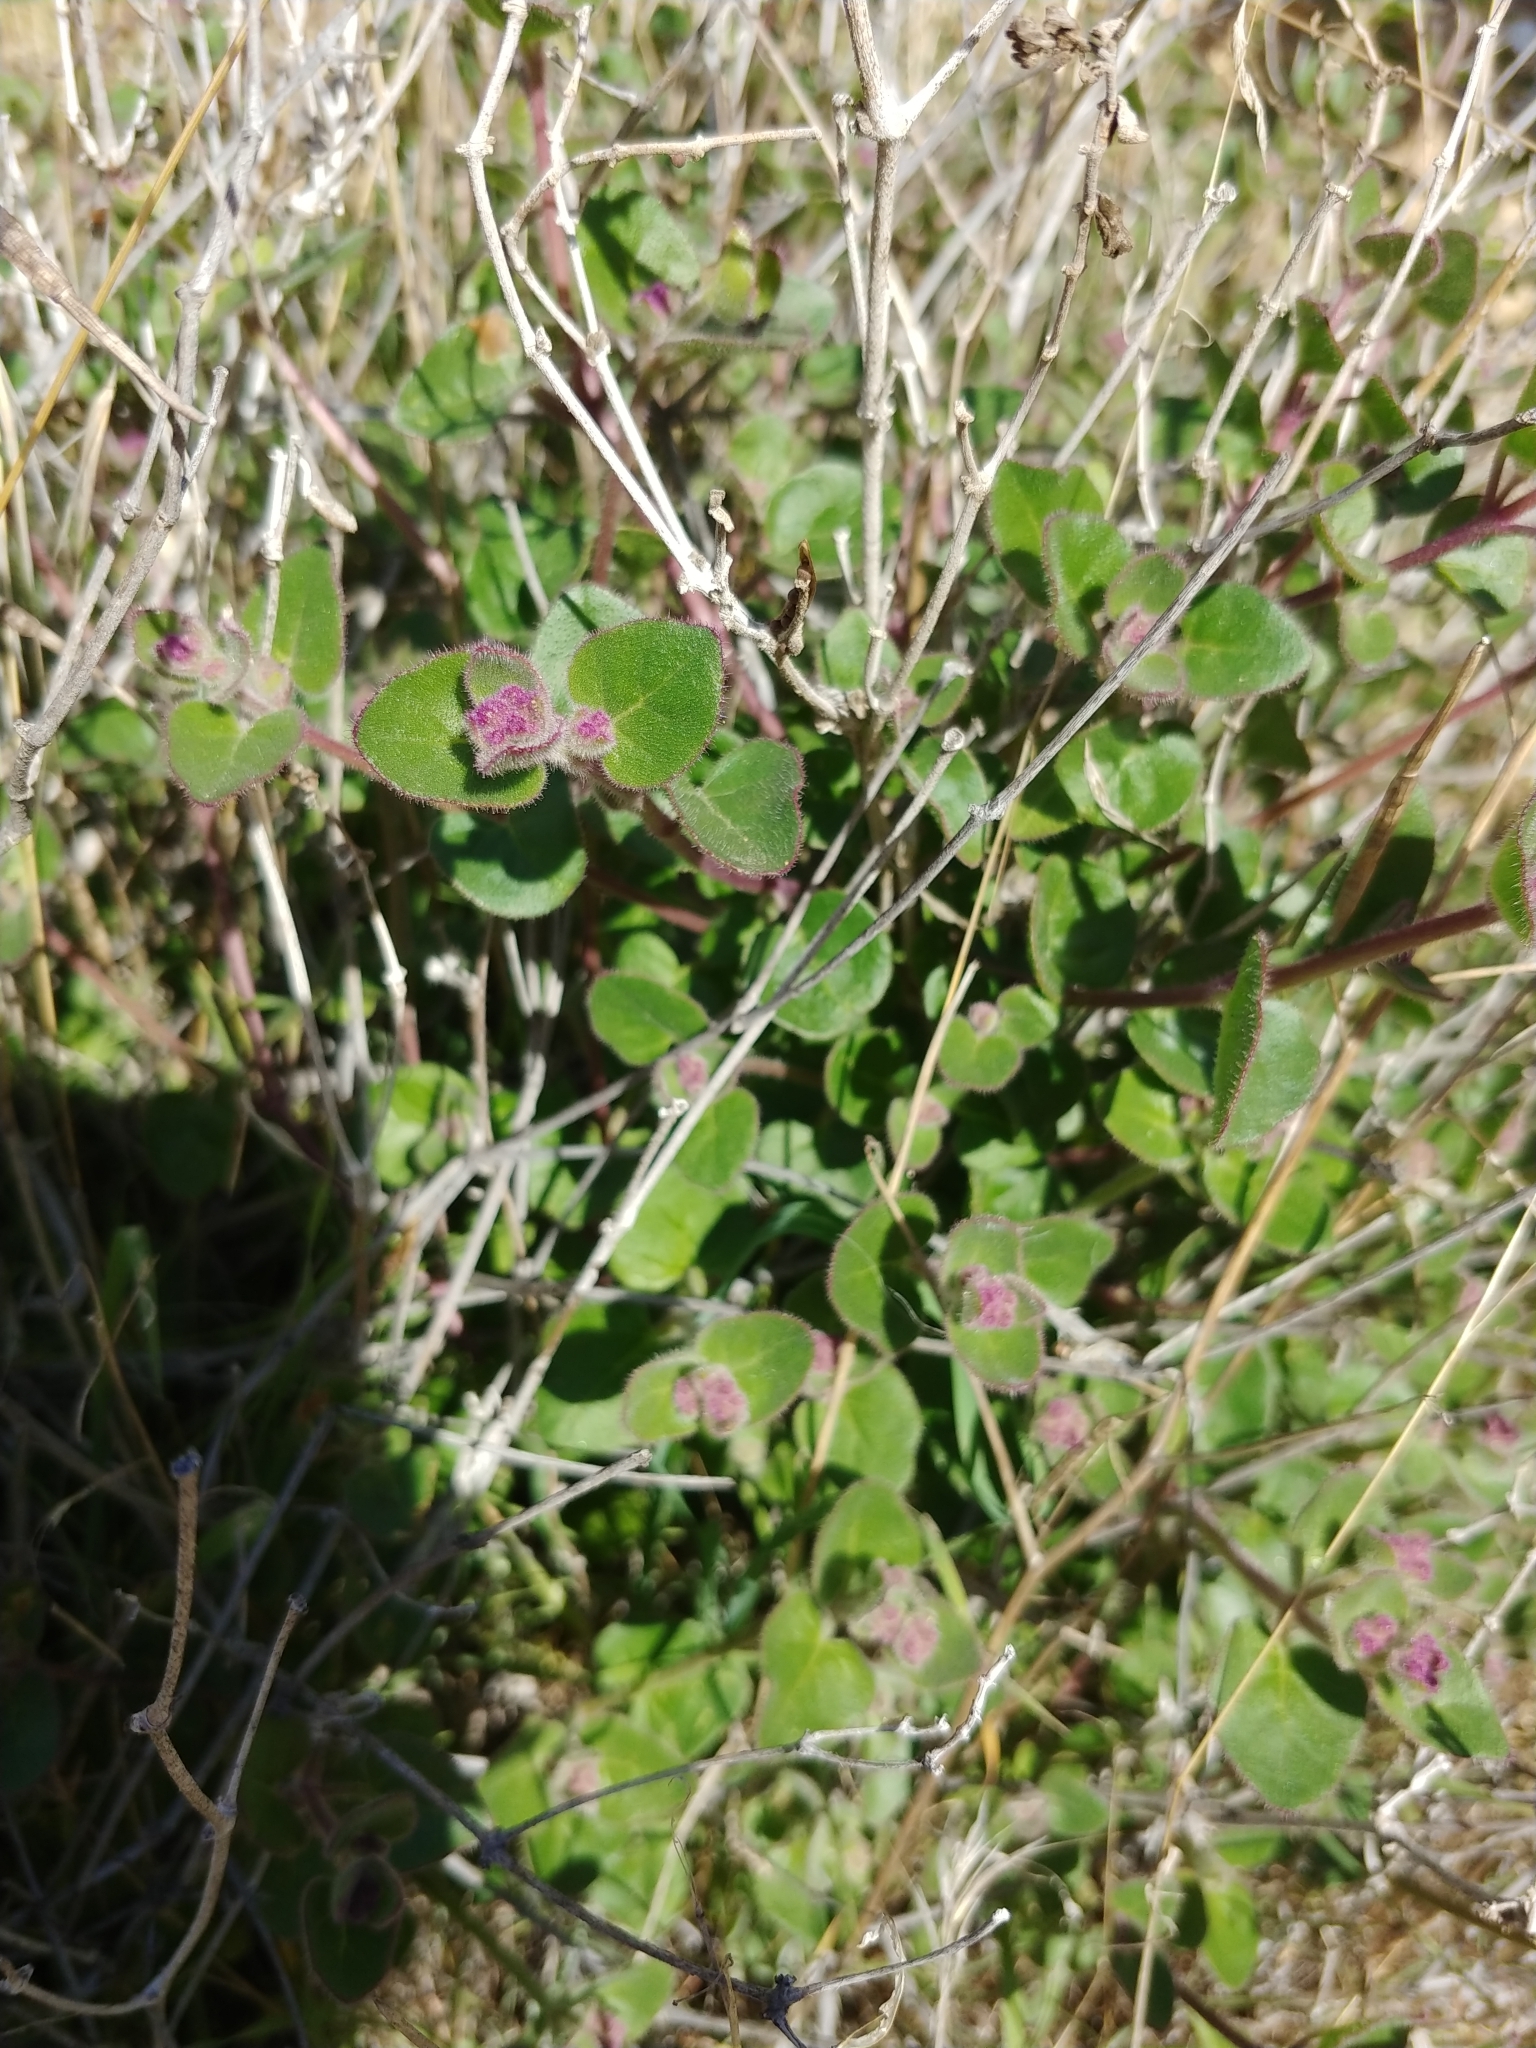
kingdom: Plantae
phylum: Tracheophyta
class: Magnoliopsida
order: Caryophyllales
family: Nyctaginaceae
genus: Mirabilis
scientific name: Mirabilis laevis
